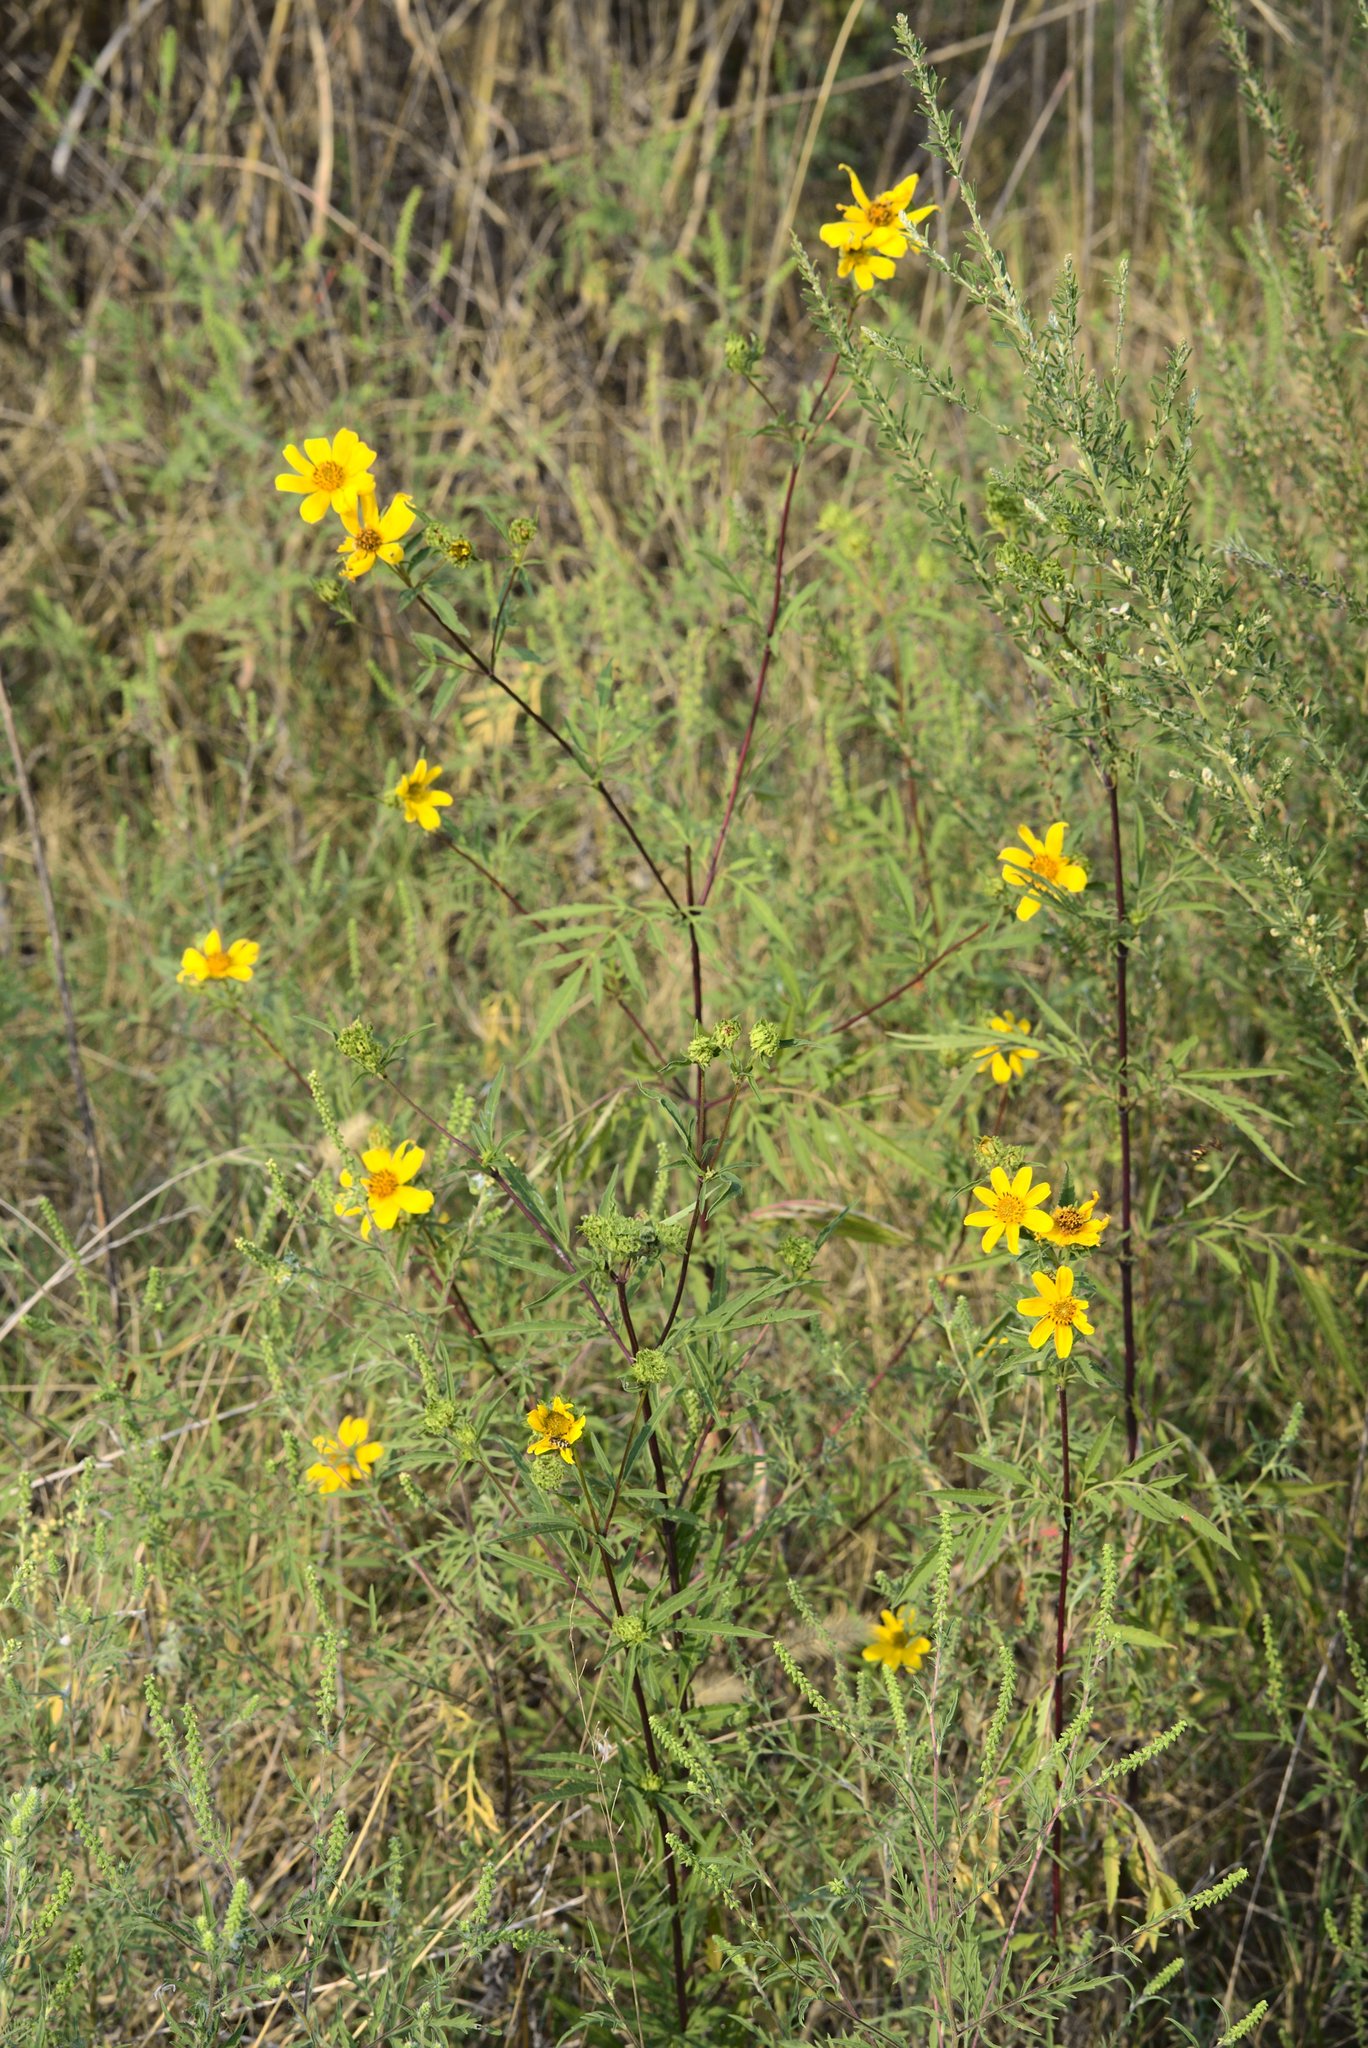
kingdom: Plantae
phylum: Tracheophyta
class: Magnoliopsida
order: Asterales
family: Asteraceae
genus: Bidens
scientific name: Bidens polylepis
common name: Awnless beggarticks
